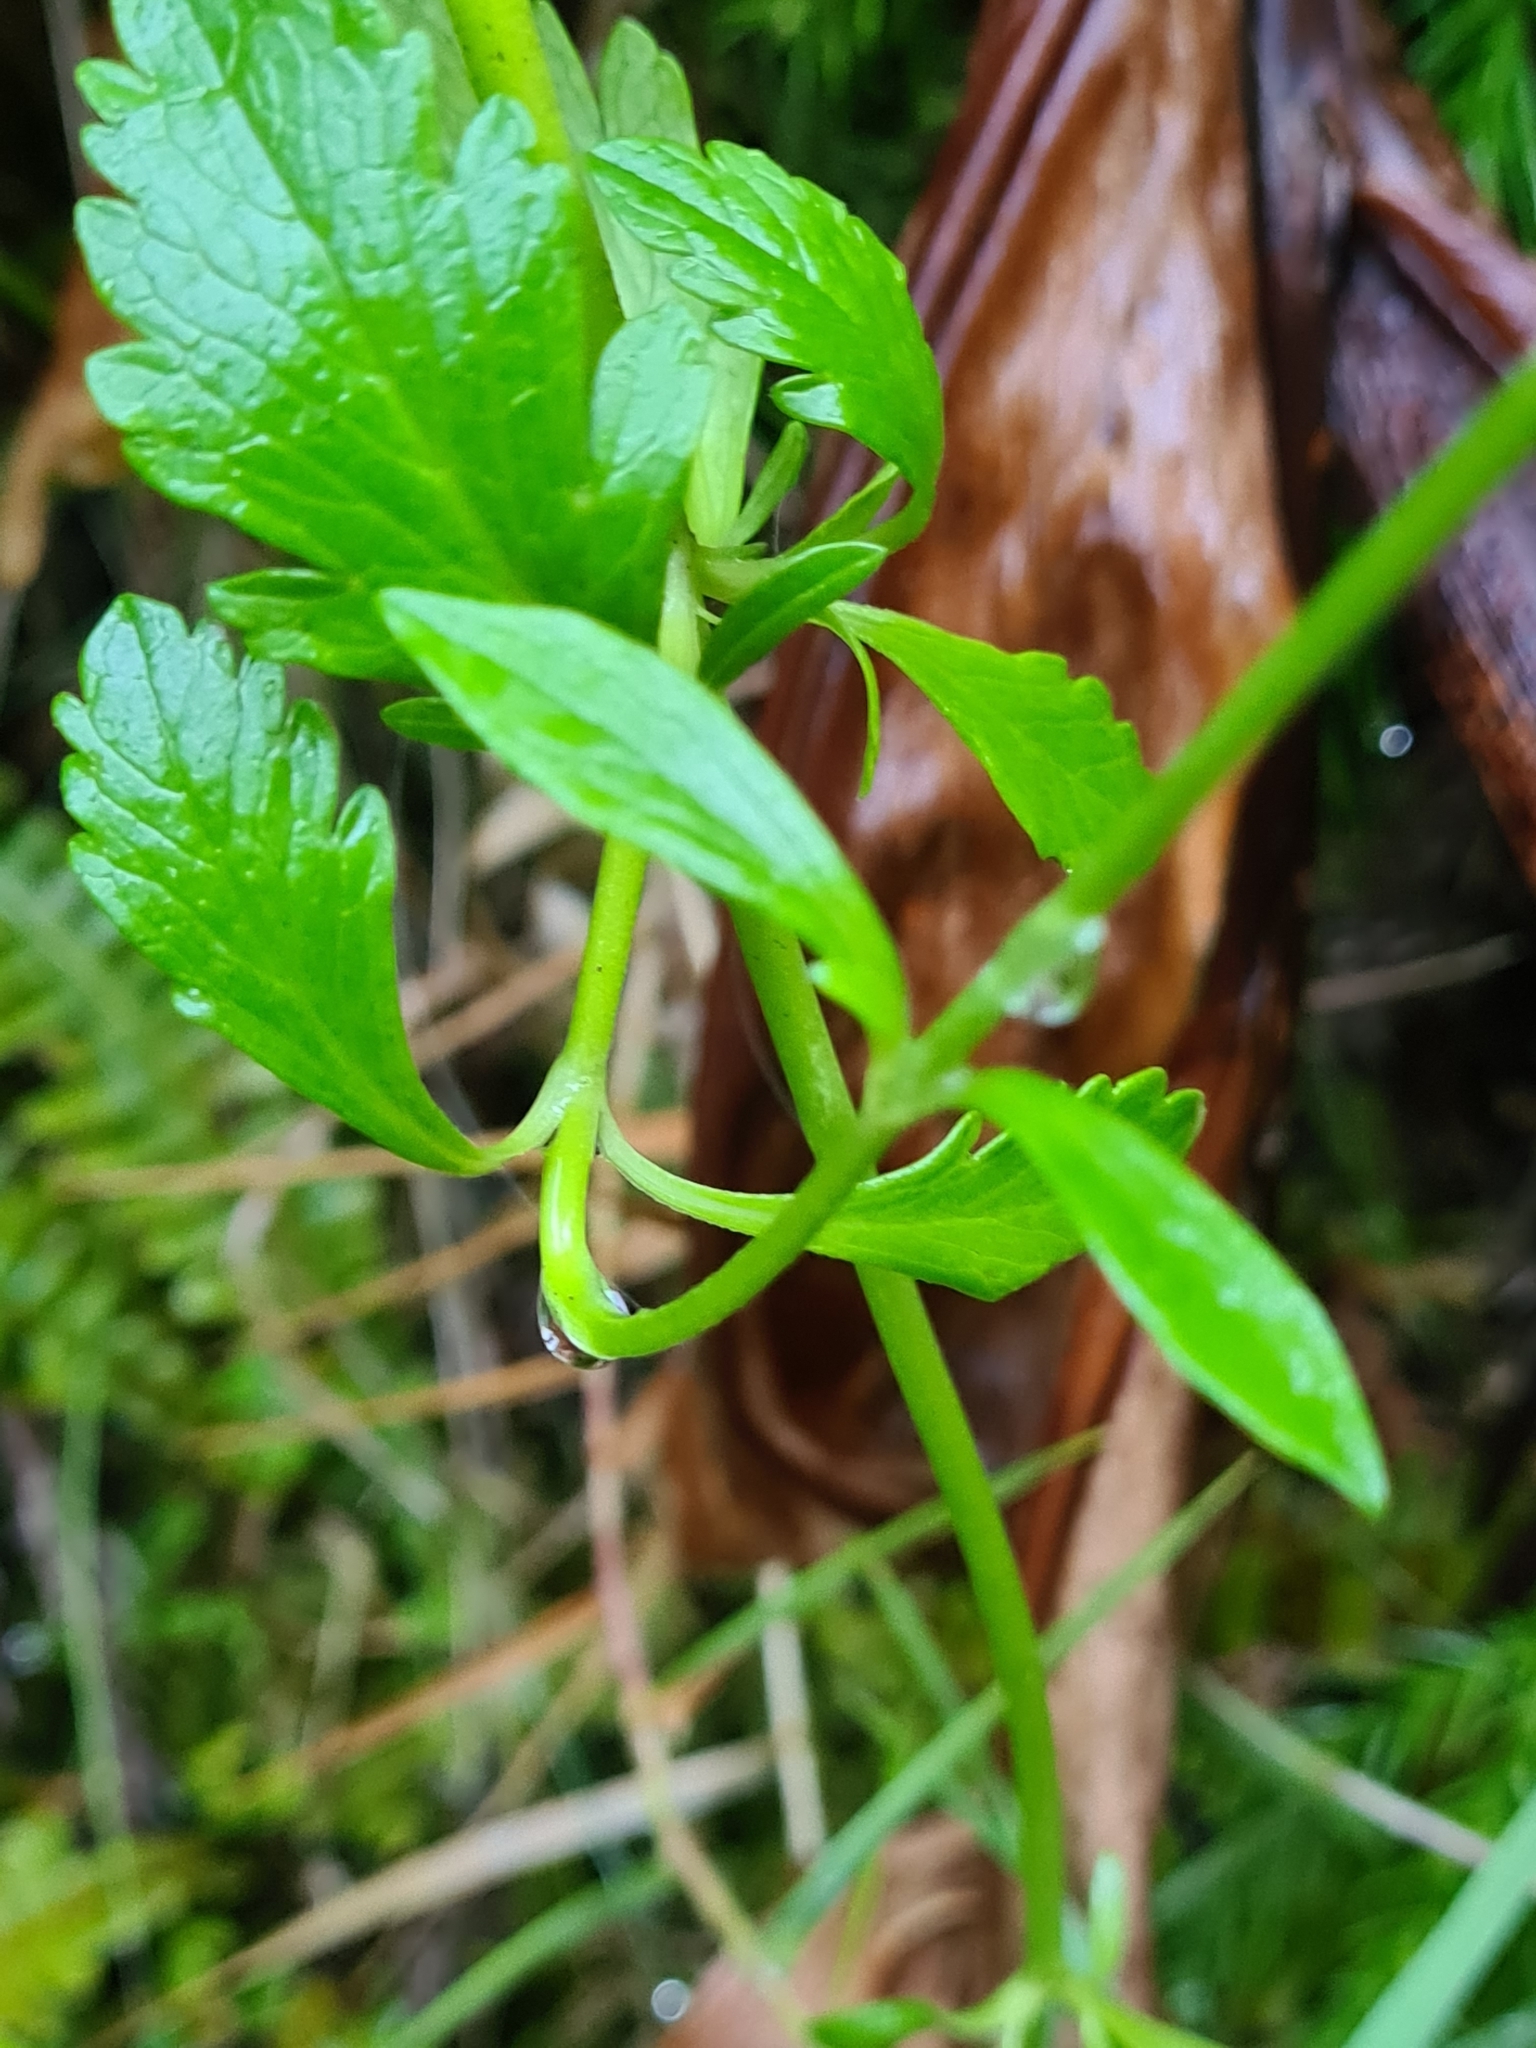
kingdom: Plantae
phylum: Tracheophyta
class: Magnoliopsida
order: Dipsacales
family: Caprifoliaceae
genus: Scabiosa
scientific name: Scabiosa nitens
